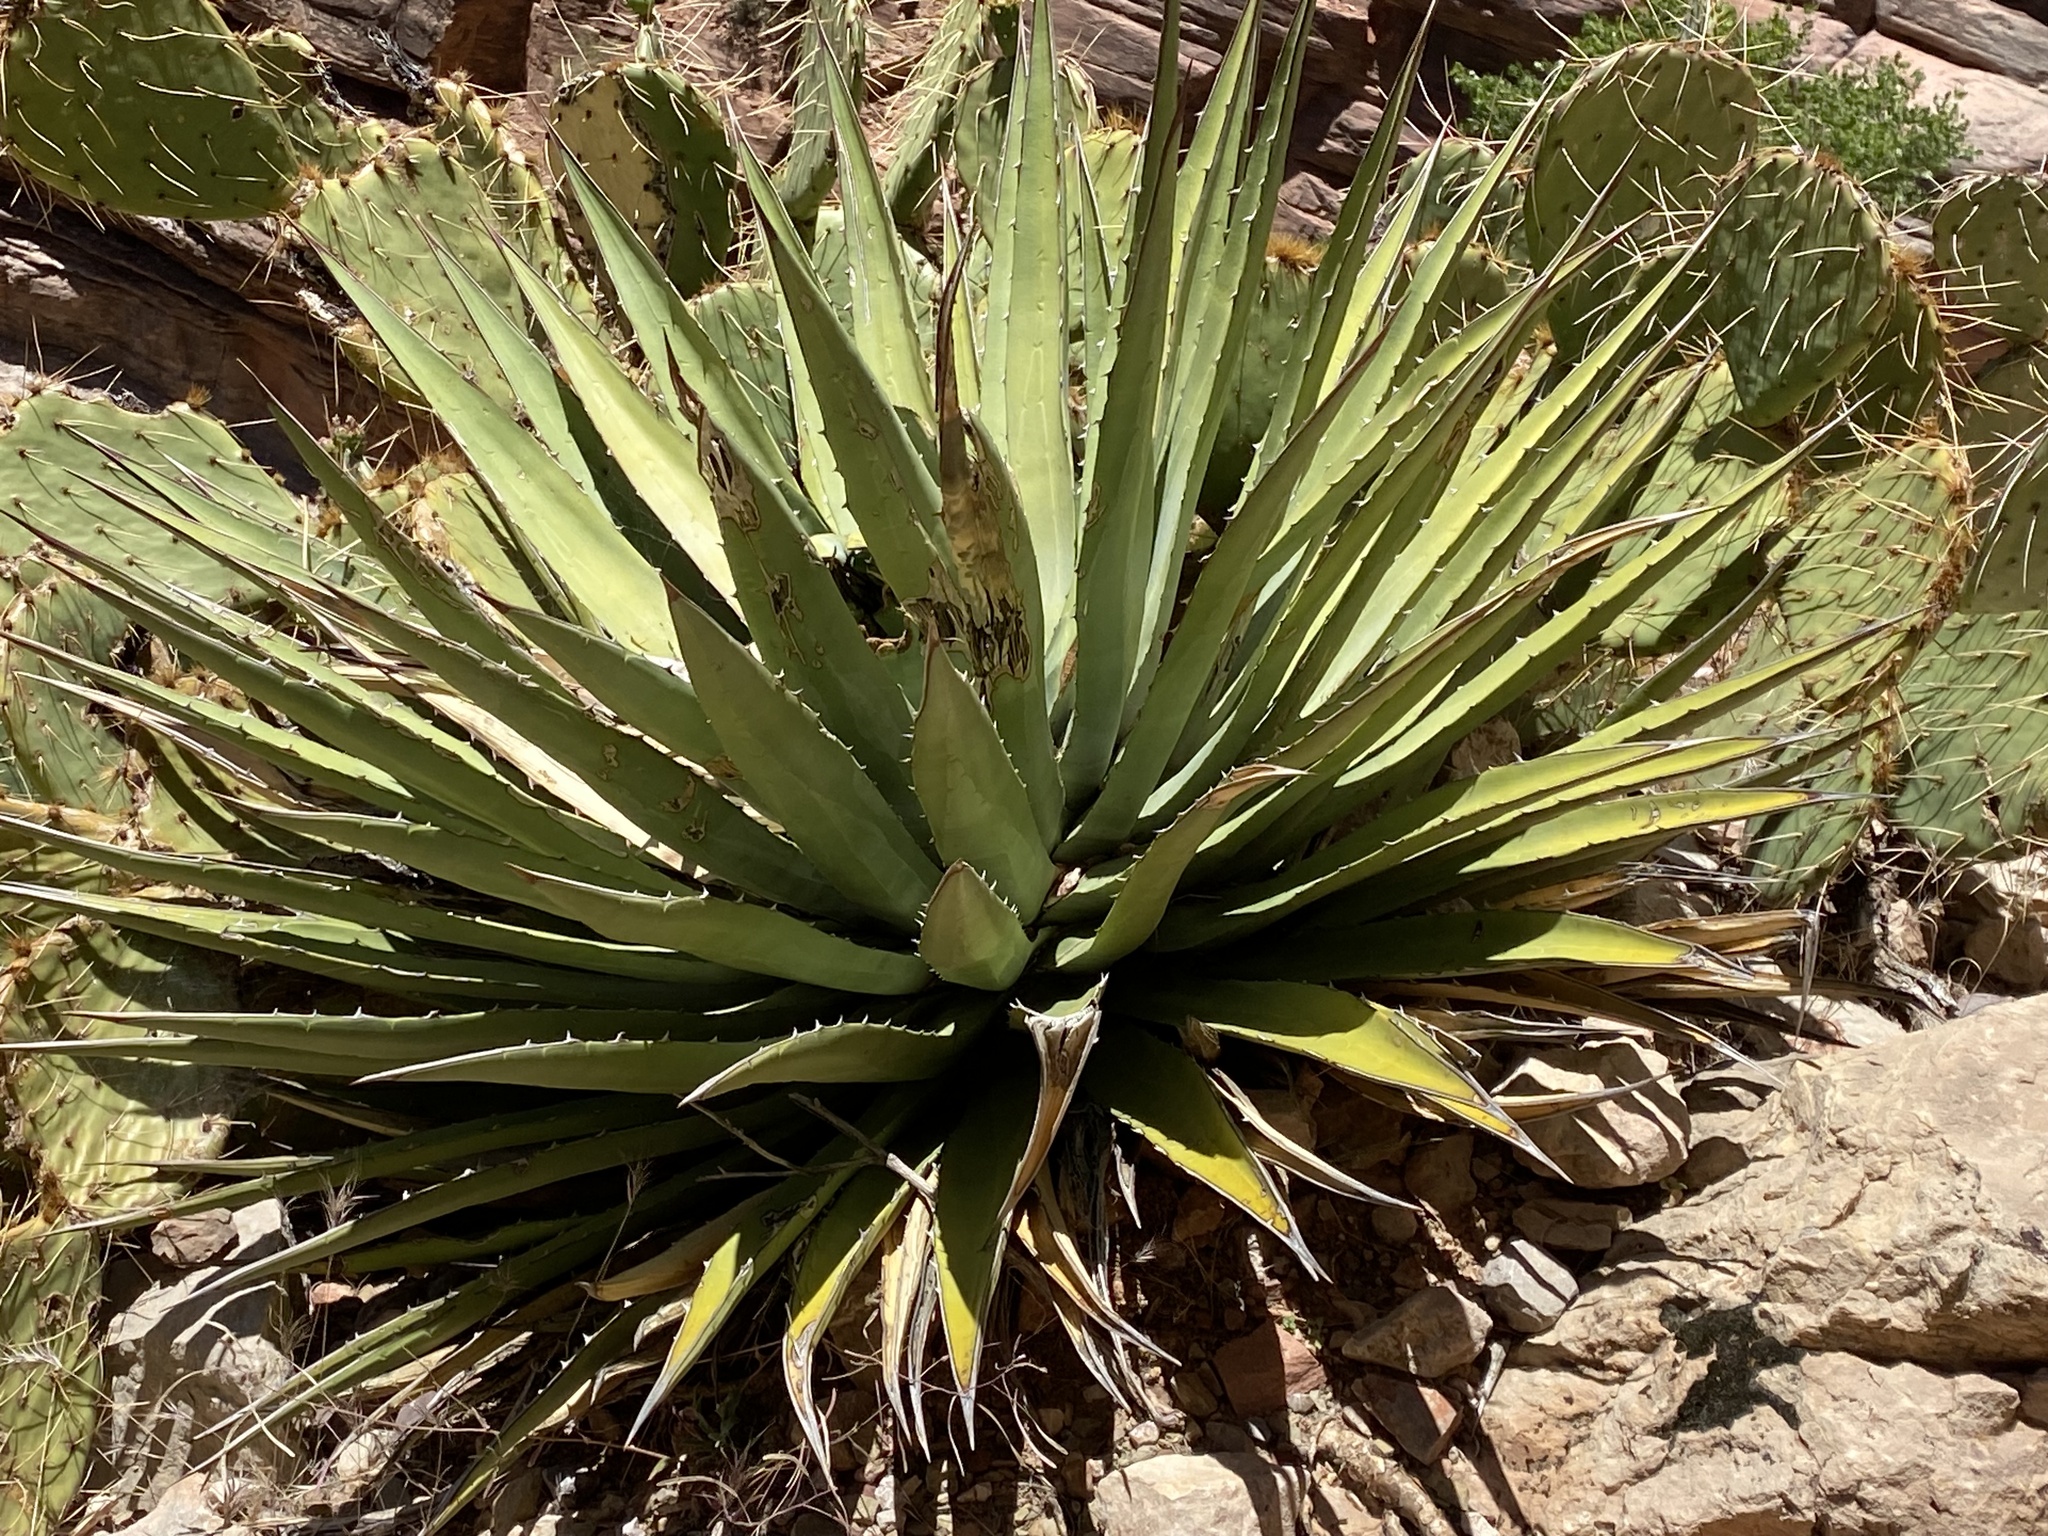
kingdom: Plantae
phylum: Tracheophyta
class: Liliopsida
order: Asparagales
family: Asparagaceae
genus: Agave
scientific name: Agave utahensis
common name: Utah agave
